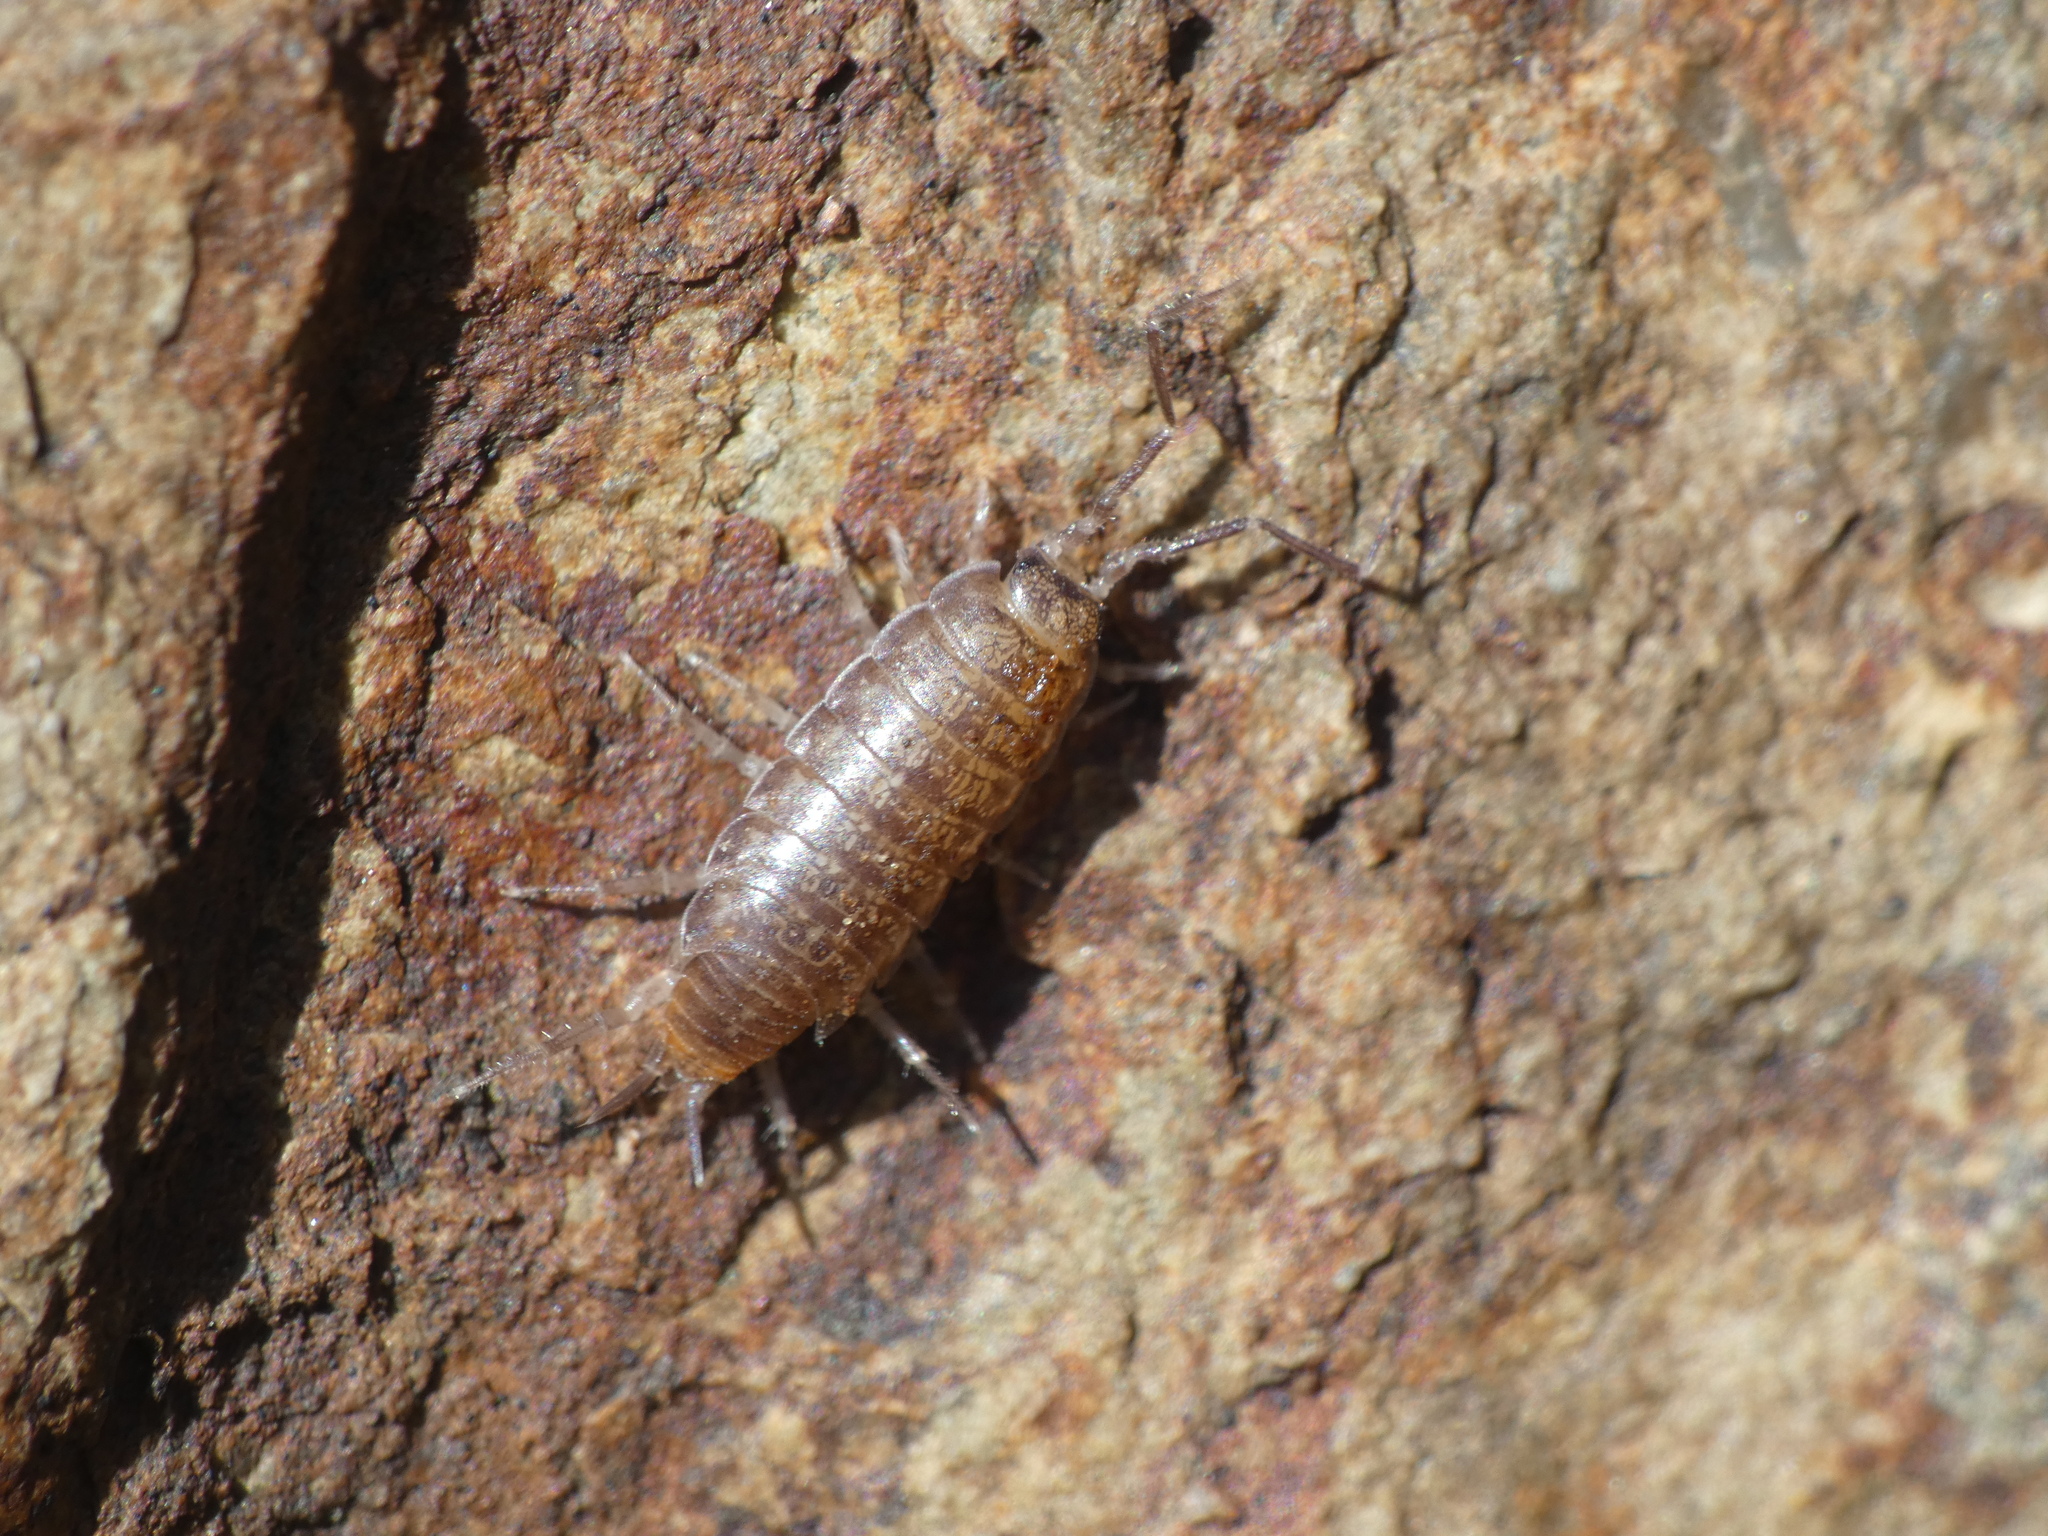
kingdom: Animalia
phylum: Arthropoda
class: Malacostraca
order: Isopoda
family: Halophilosciidae
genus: Halophiloscia
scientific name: Halophiloscia couchii
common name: Isopod
